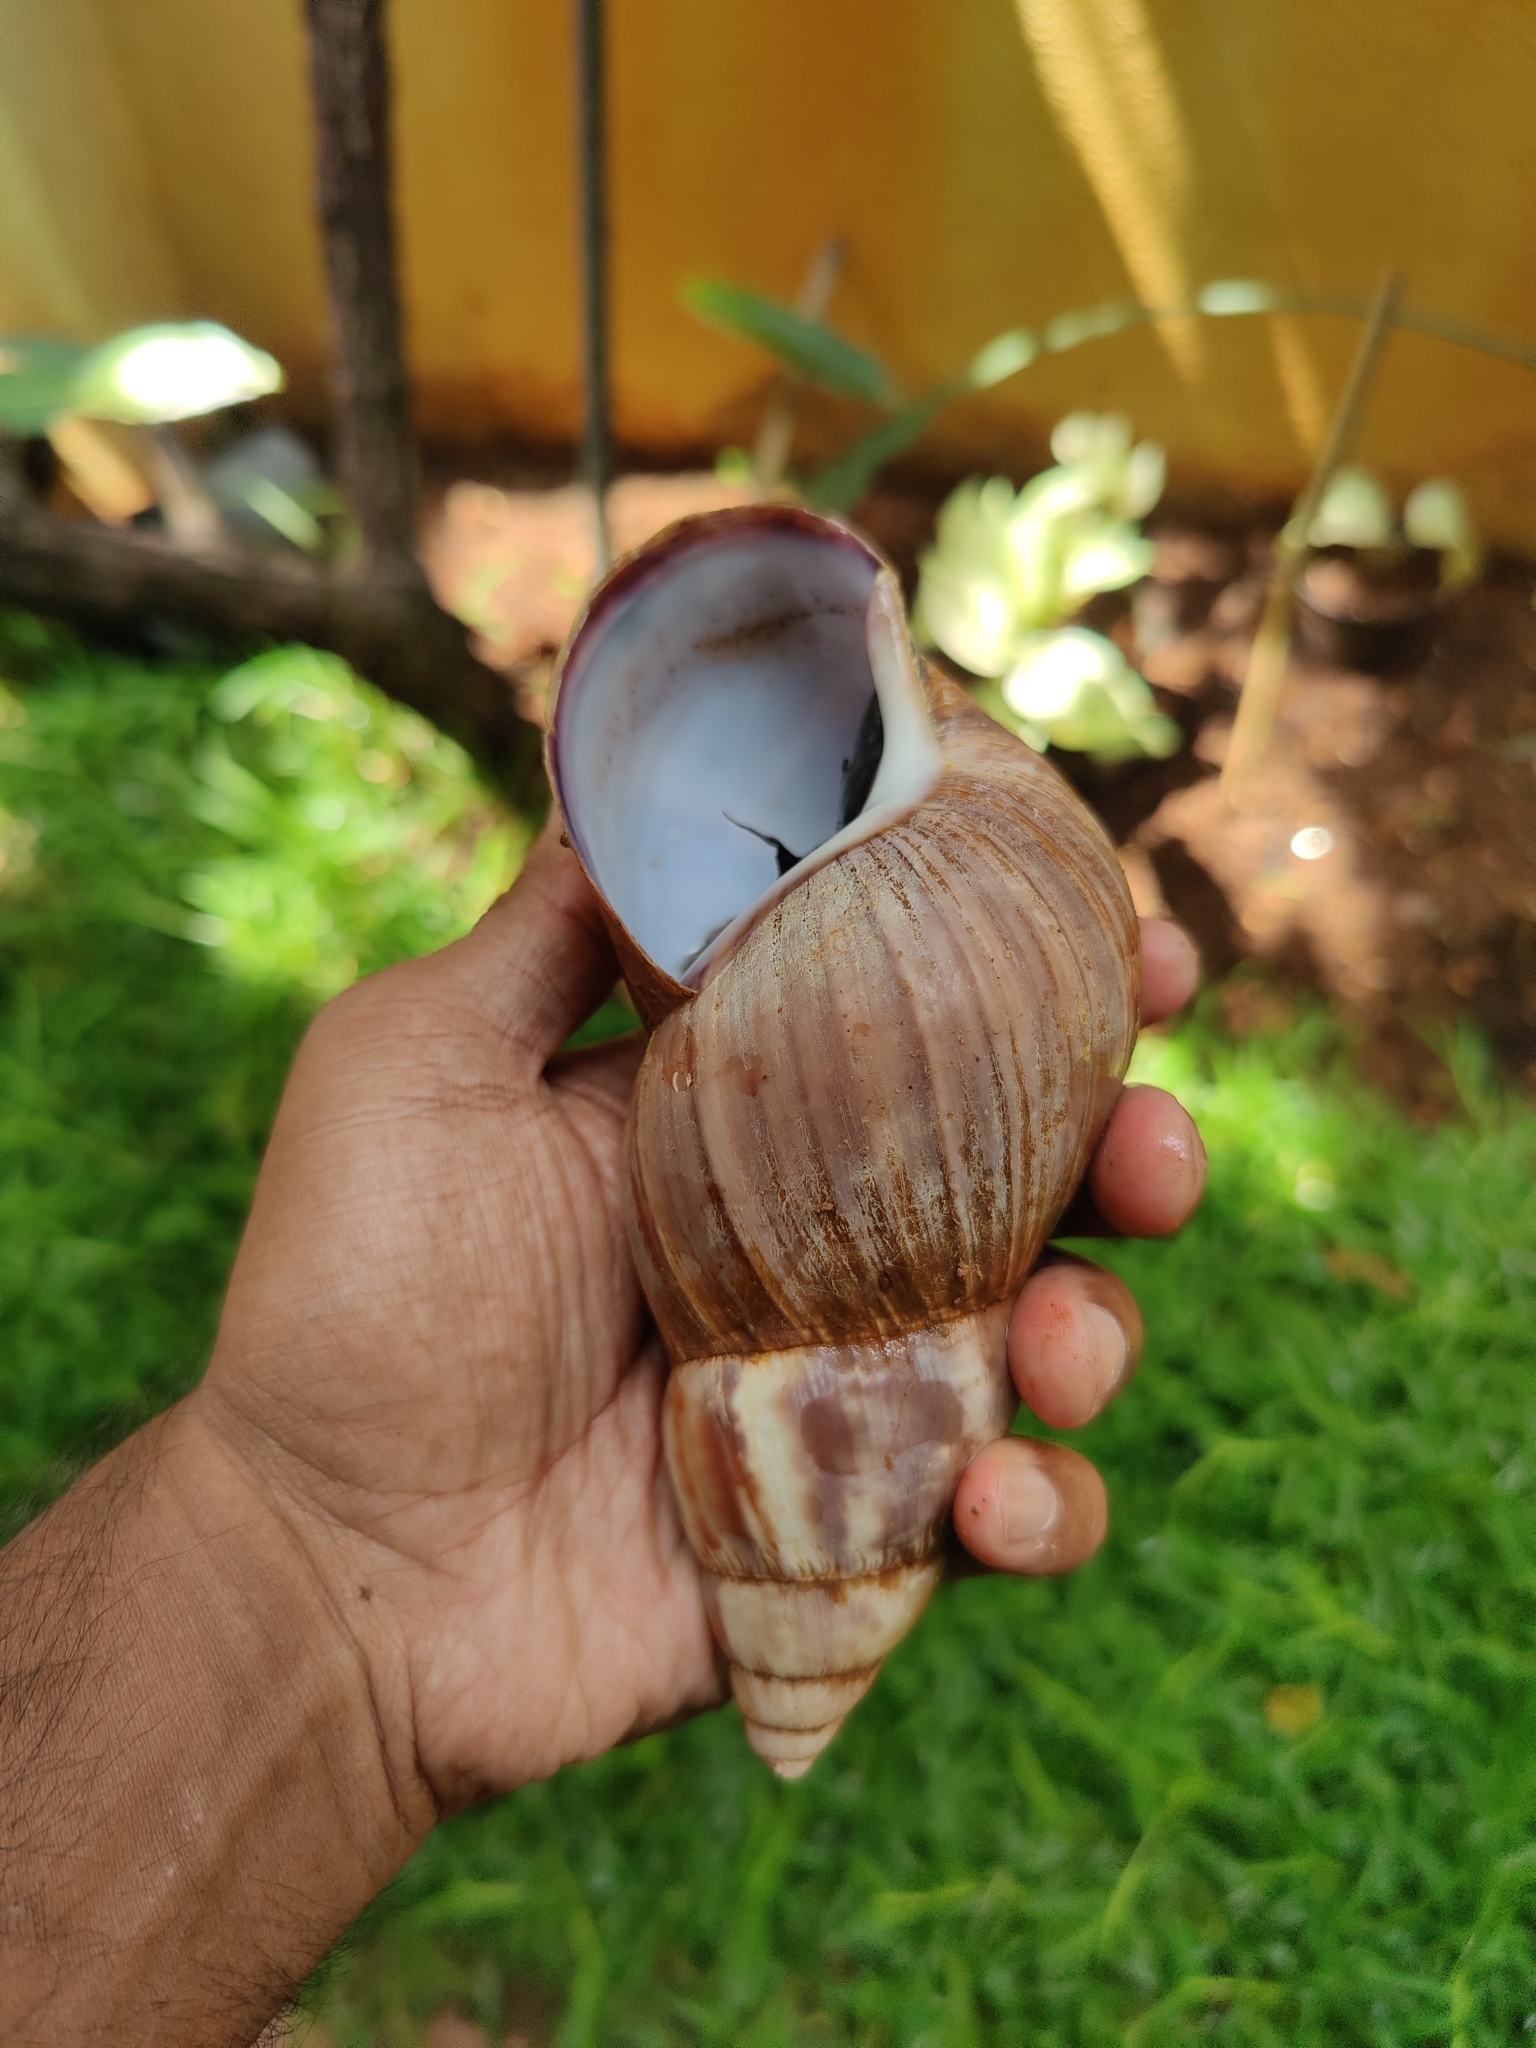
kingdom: Animalia
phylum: Mollusca
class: Gastropoda
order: Stylommatophora
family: Achatinidae
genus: Lissachatina
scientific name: Lissachatina fulica
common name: Giant african snail
